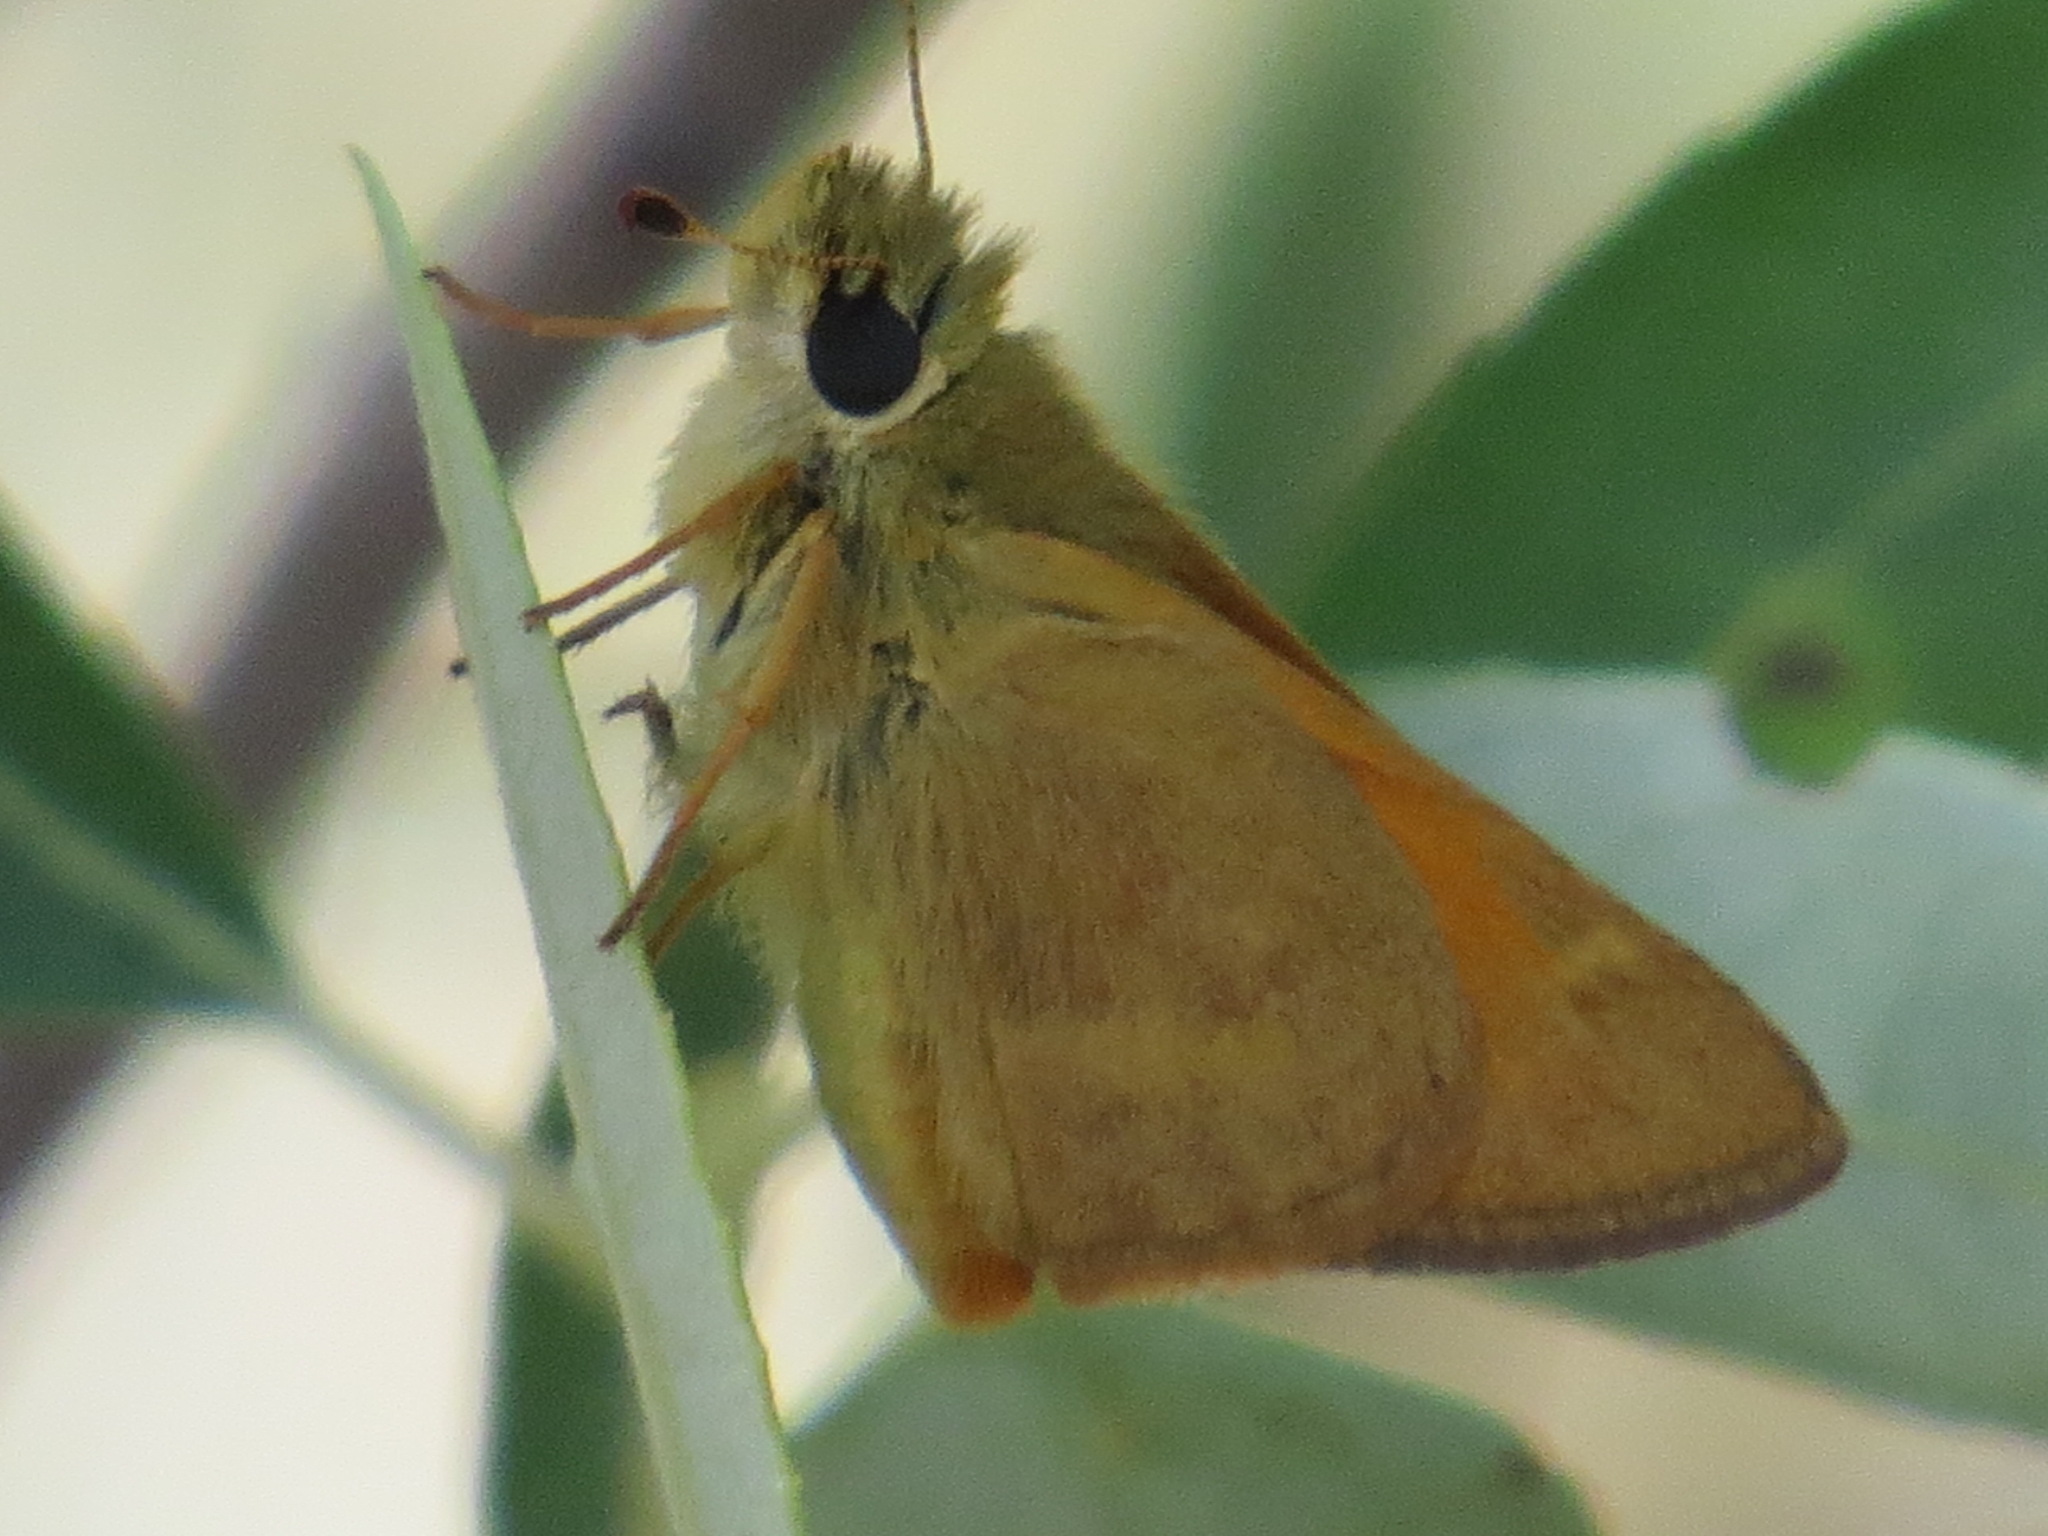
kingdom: Animalia
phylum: Arthropoda
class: Insecta
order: Lepidoptera
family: Hesperiidae
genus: Ochlodes
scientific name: Ochlodes sylvanoides
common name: Woodland skipper
